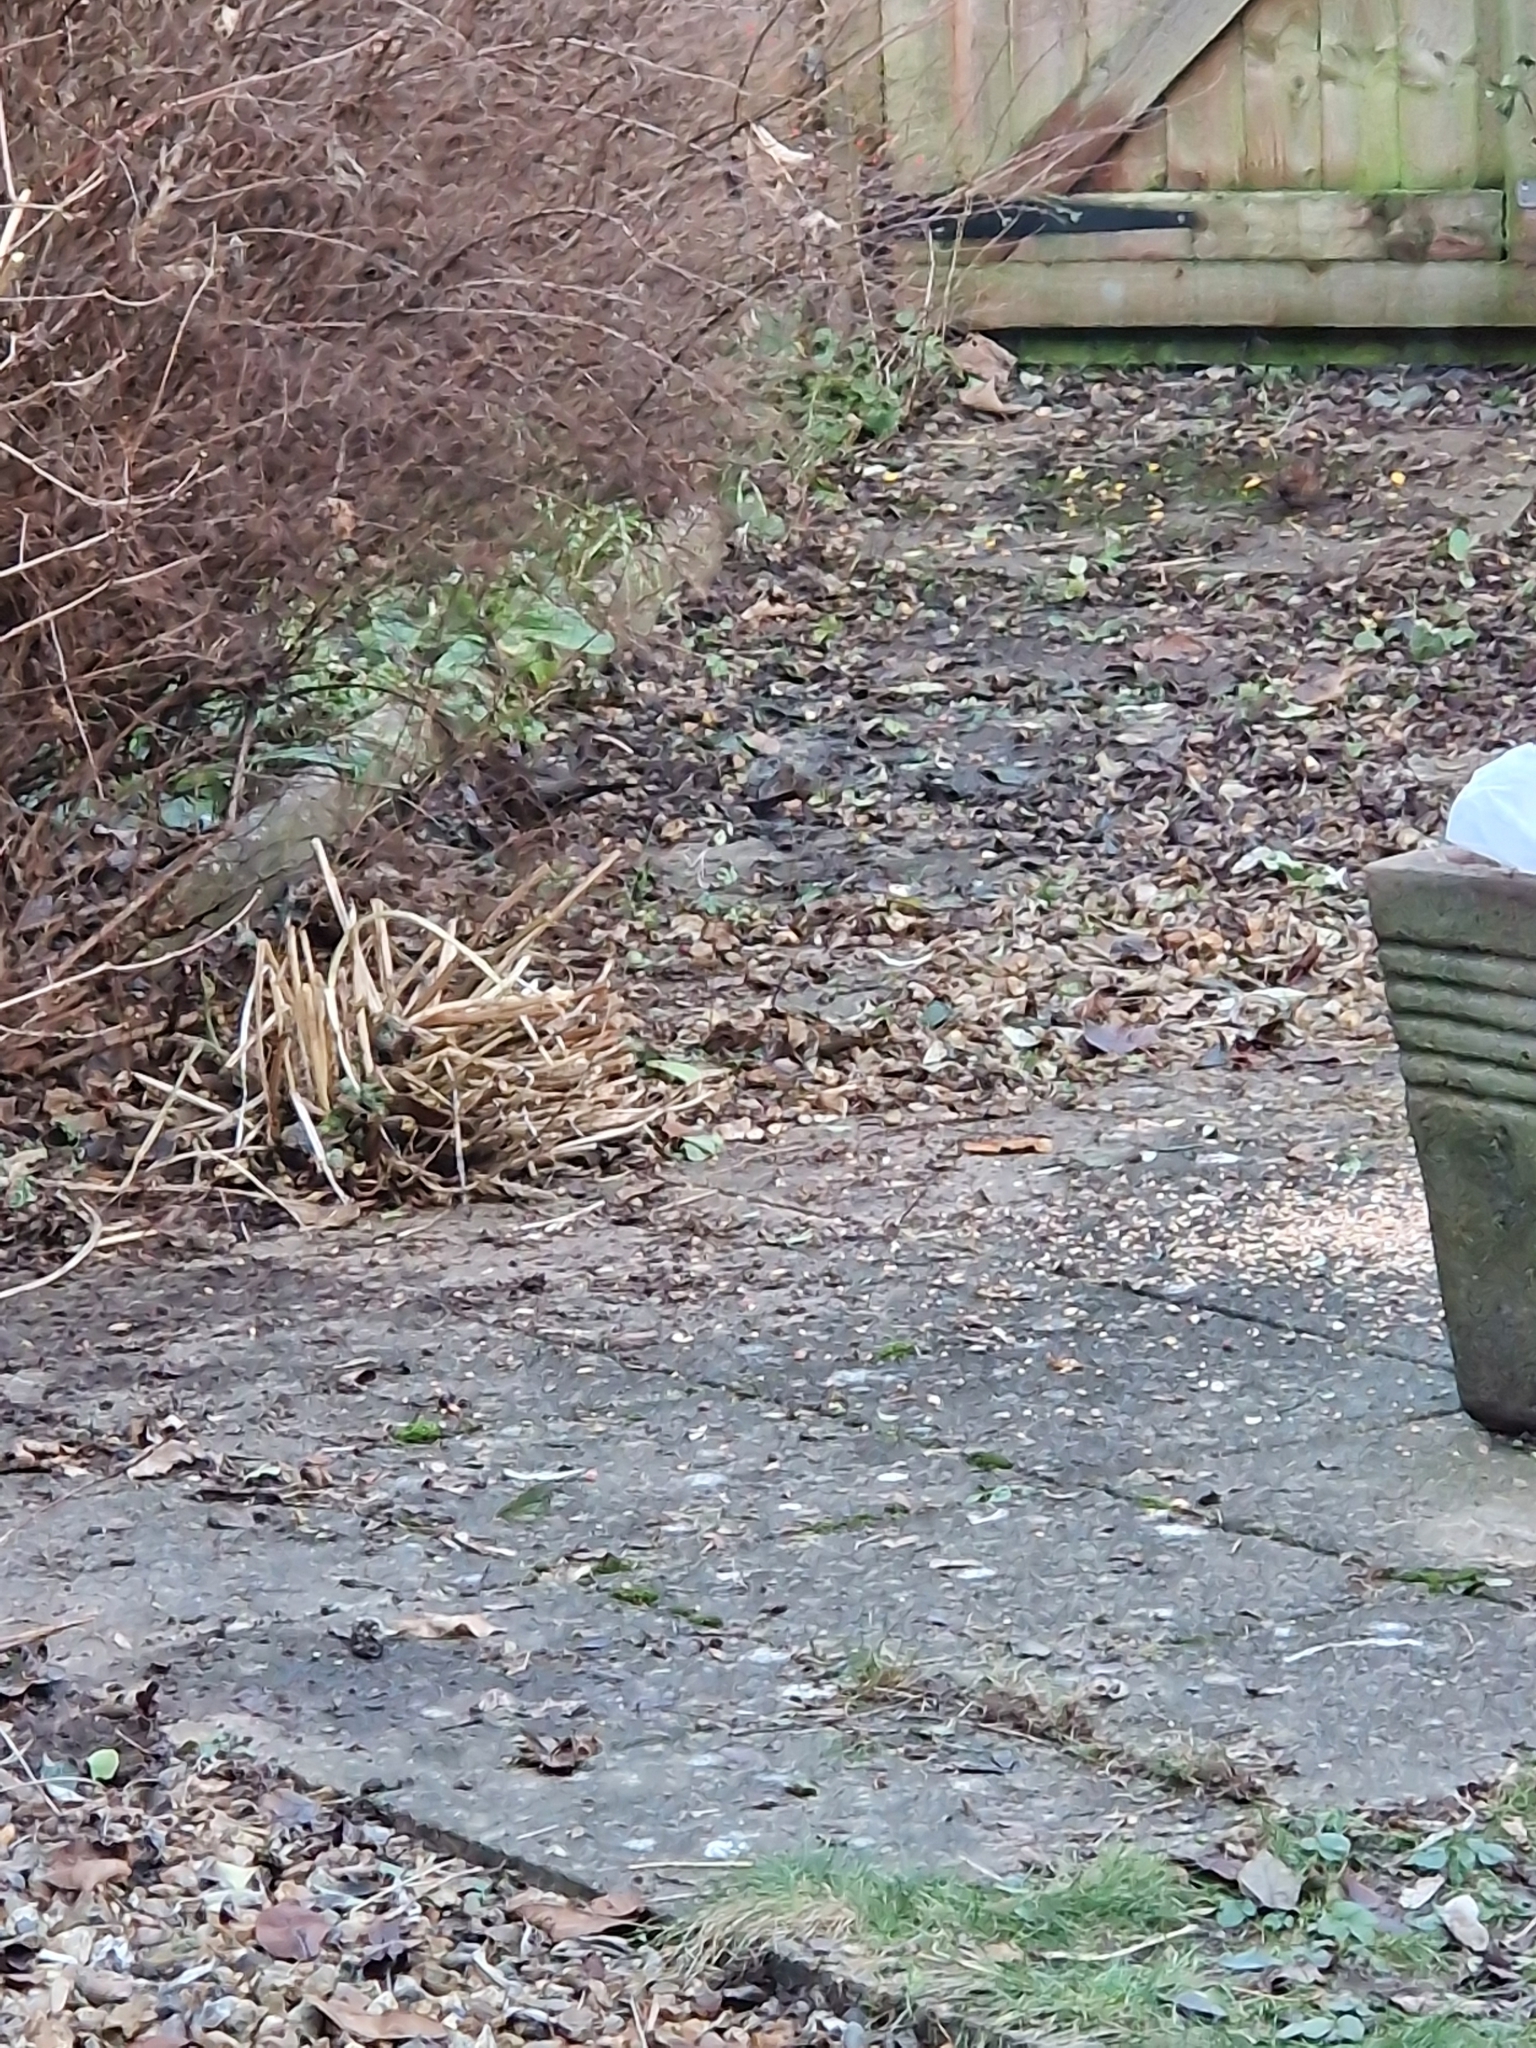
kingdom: Animalia
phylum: Chordata
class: Aves
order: Passeriformes
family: Turdidae
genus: Turdus
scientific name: Turdus merula
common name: Common blackbird
